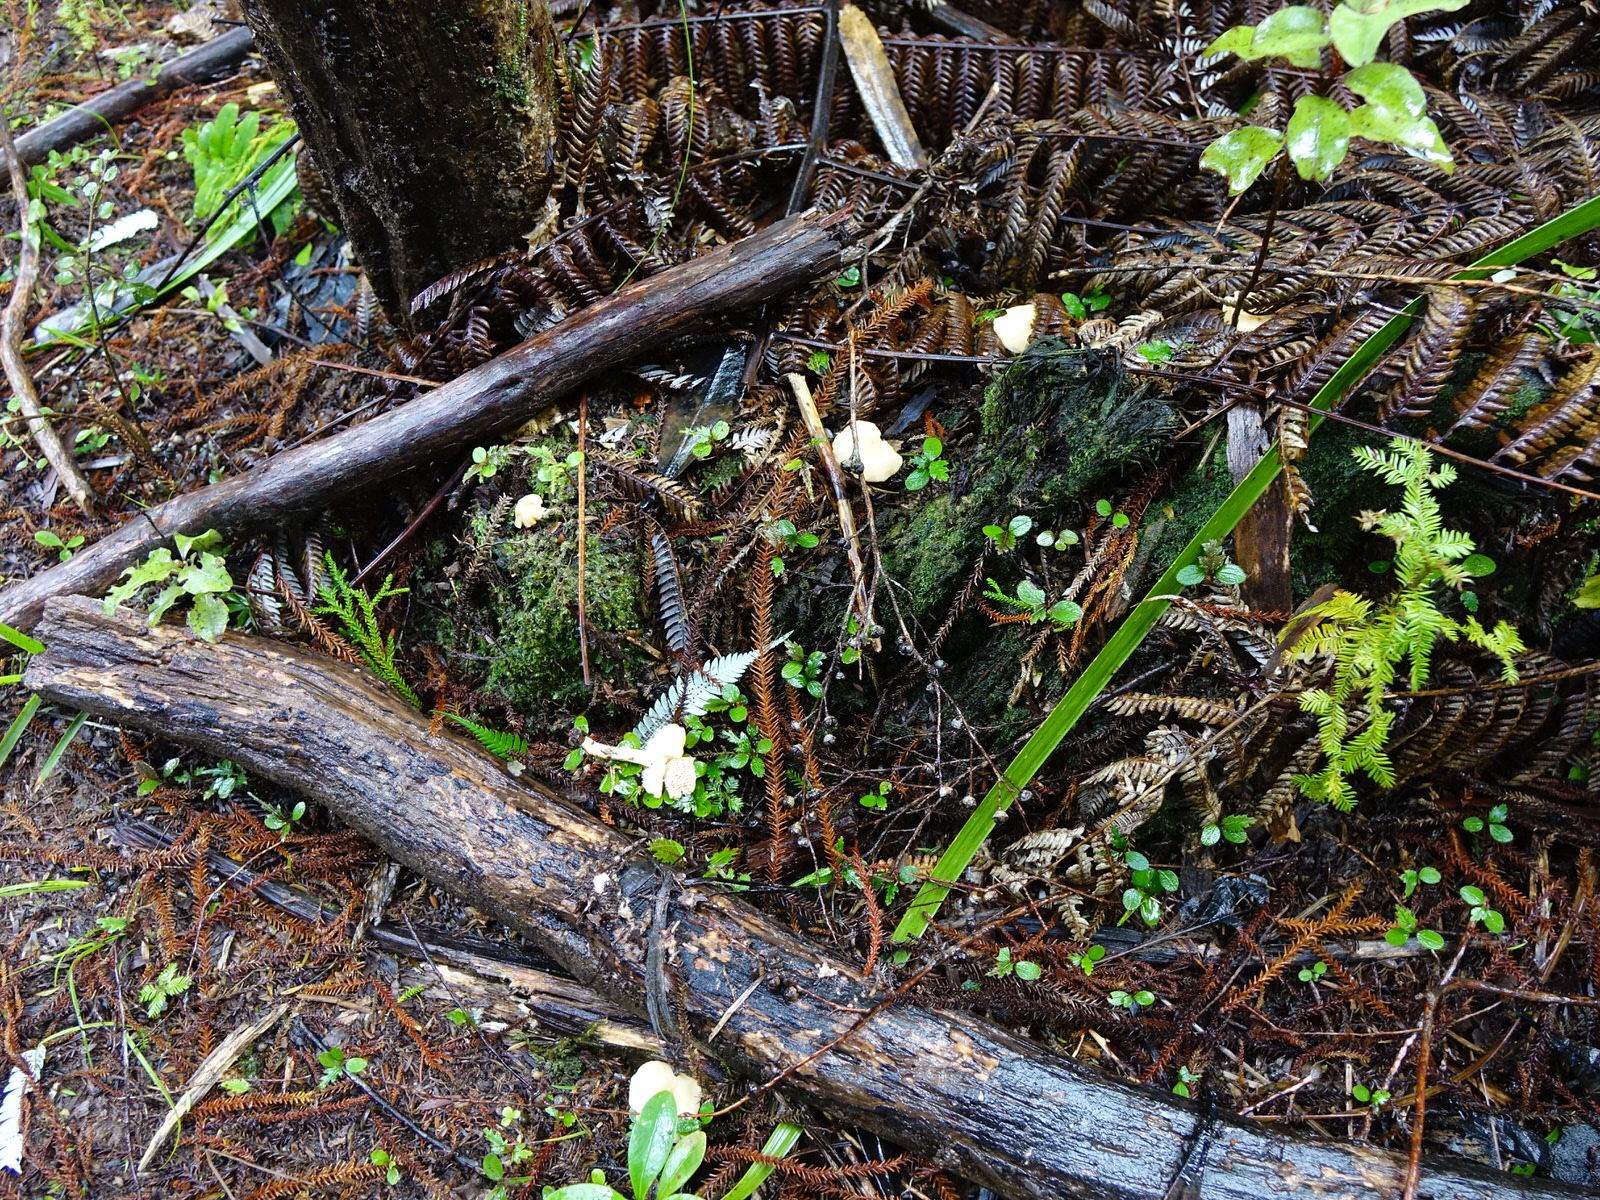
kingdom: Fungi
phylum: Basidiomycota
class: Agaricomycetes
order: Cantharellales
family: Hydnaceae
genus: Hydnum
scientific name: Hydnum ambustum
